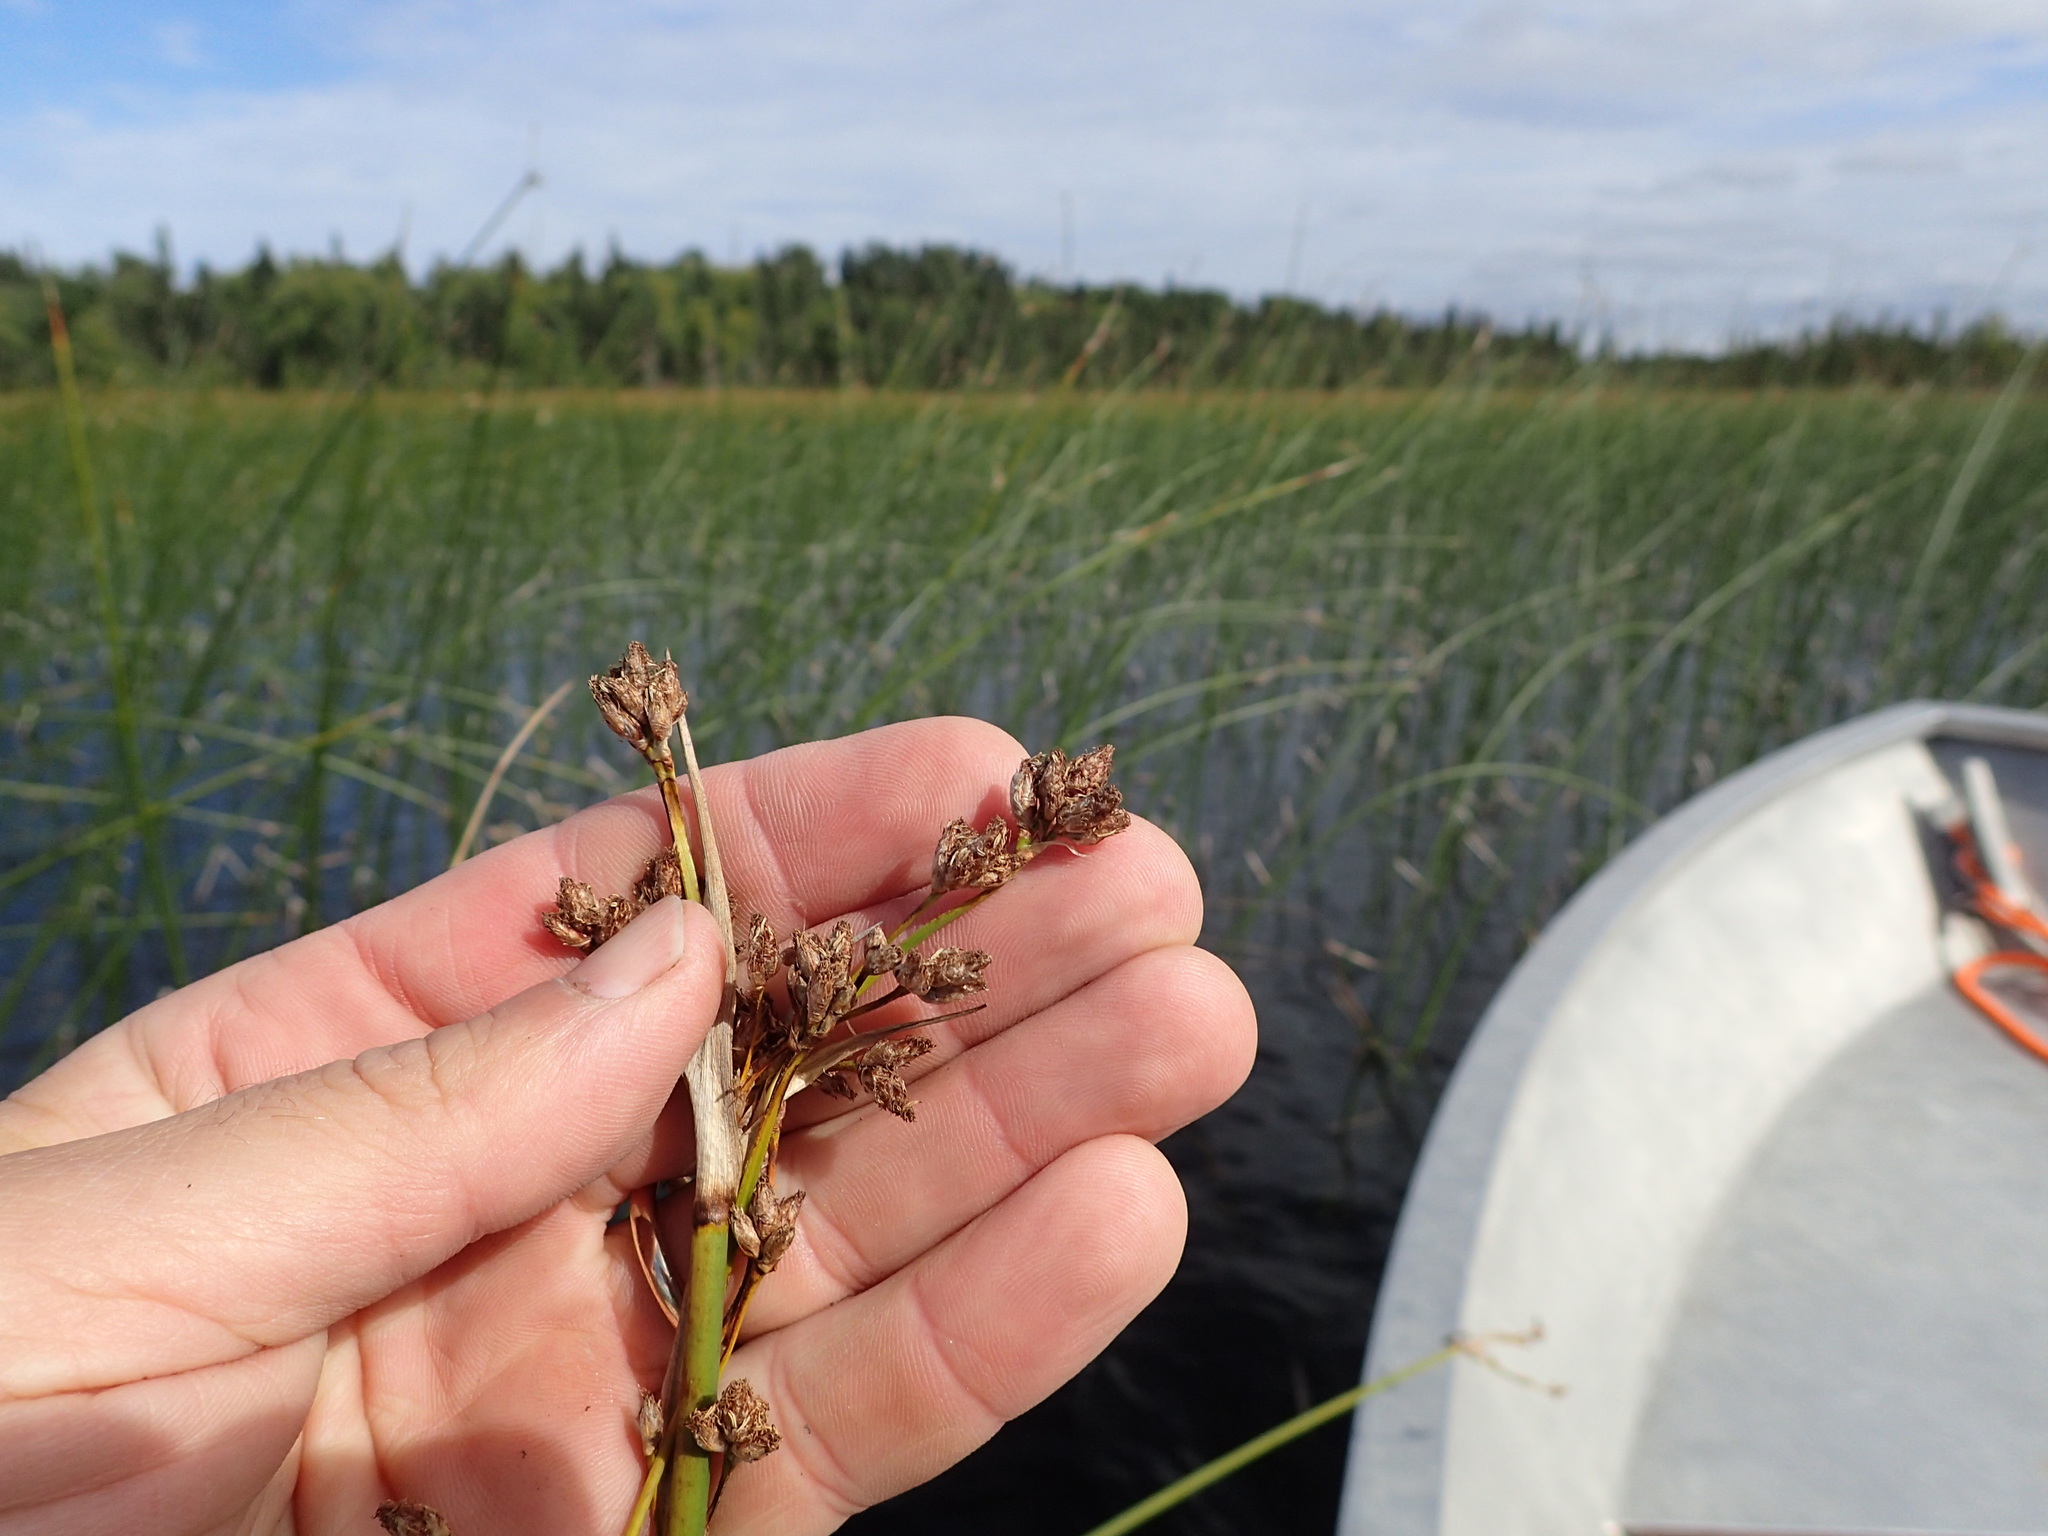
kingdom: Plantae
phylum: Tracheophyta
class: Liliopsida
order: Poales
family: Cyperaceae
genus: Schoenoplectus
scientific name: Schoenoplectus acutus
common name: Hardstem bulrush
